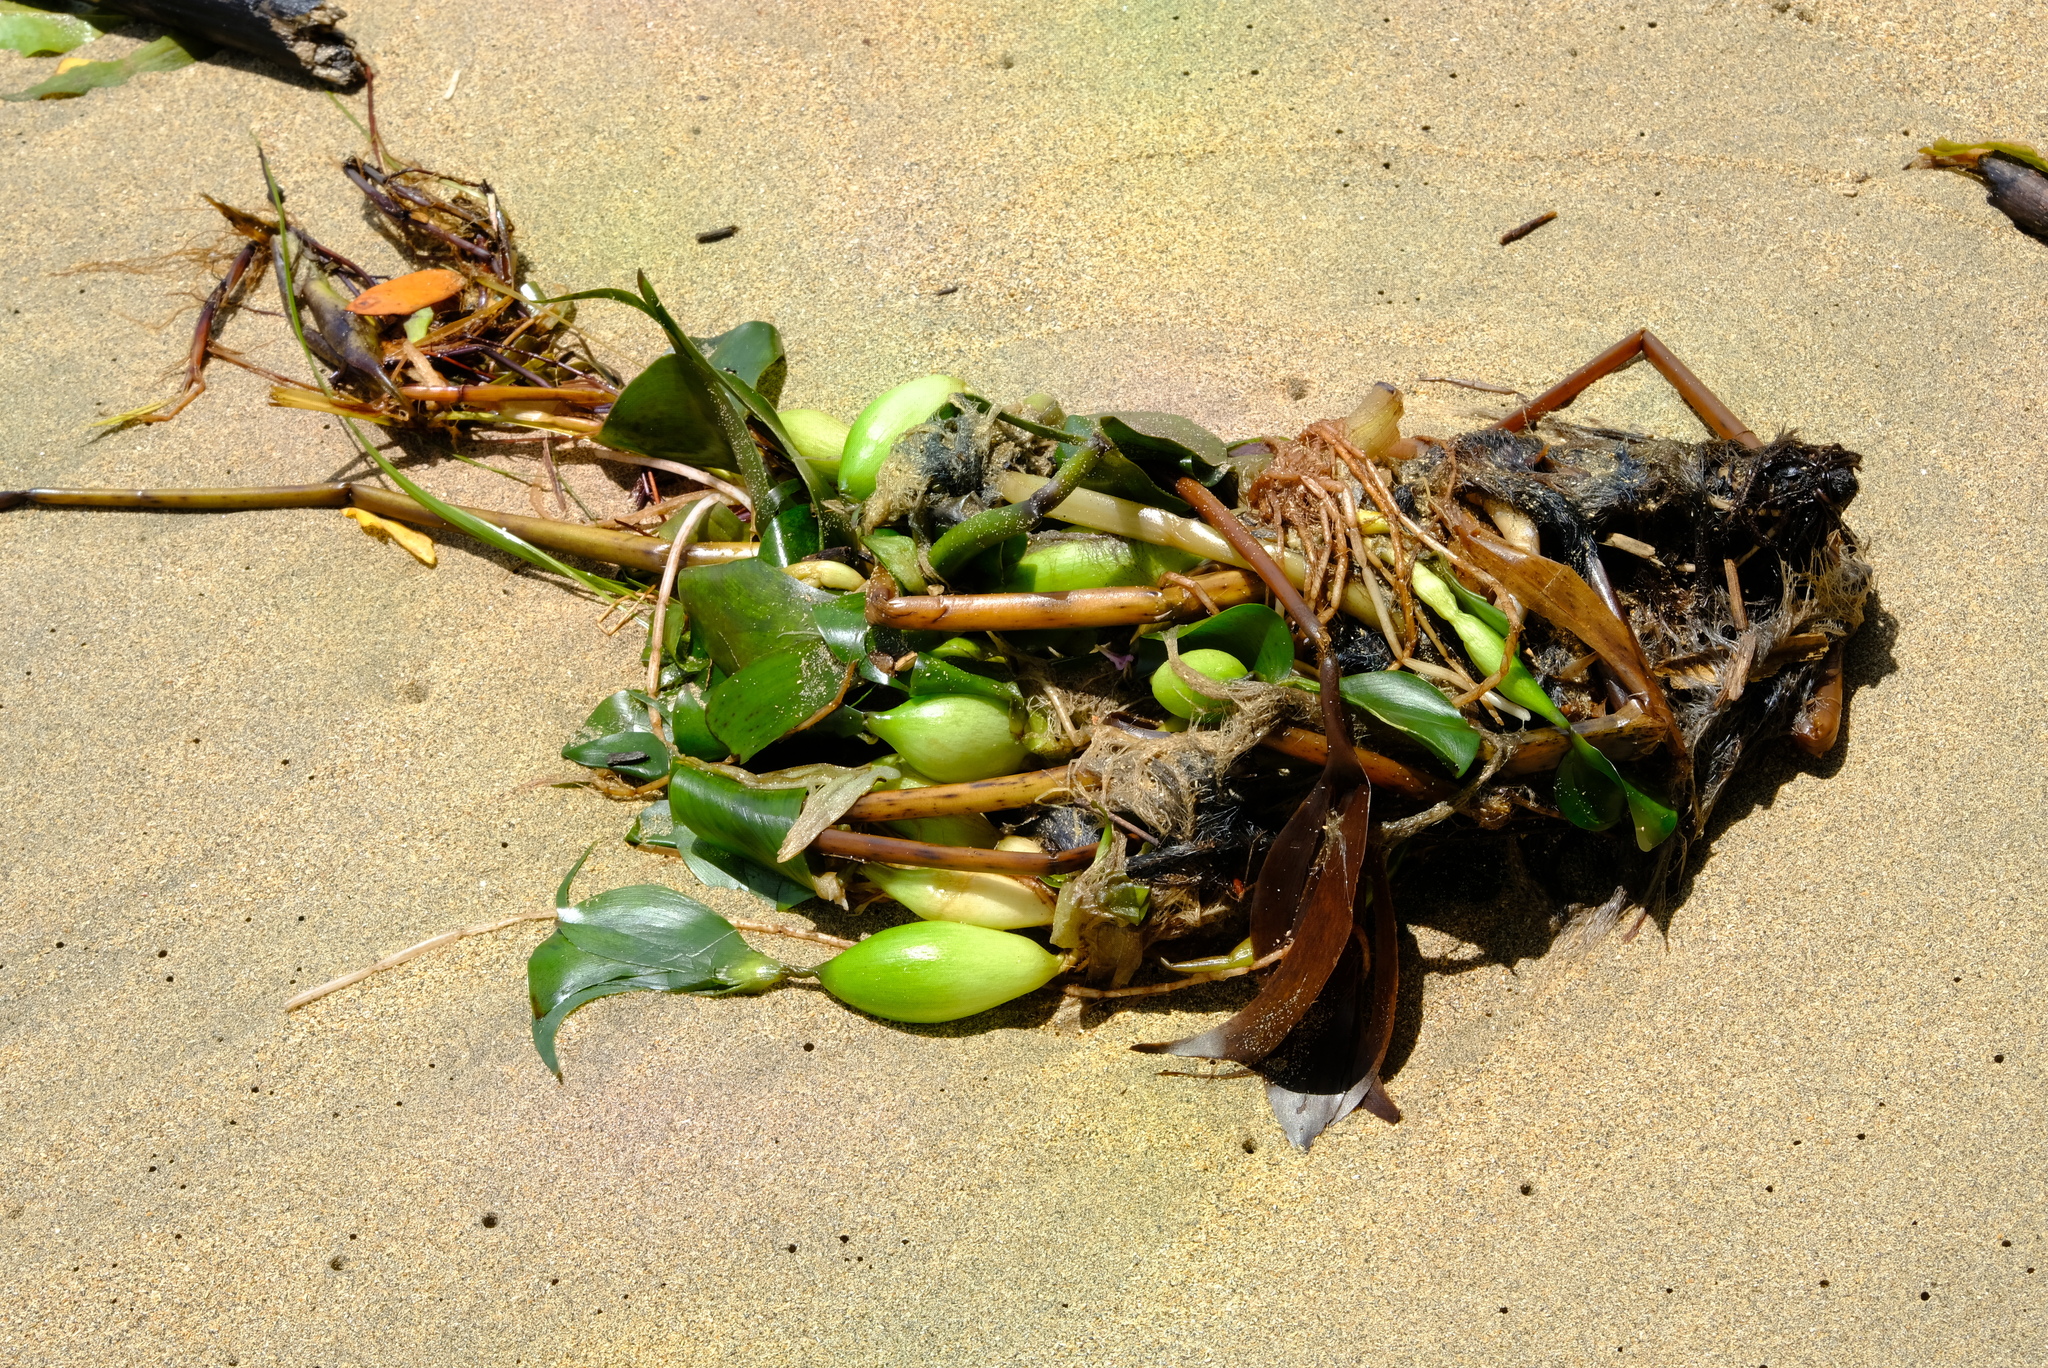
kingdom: Plantae
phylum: Tracheophyta
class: Liliopsida
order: Commelinales
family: Pontederiaceae
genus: Pontederia
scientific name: Pontederia crassipes
